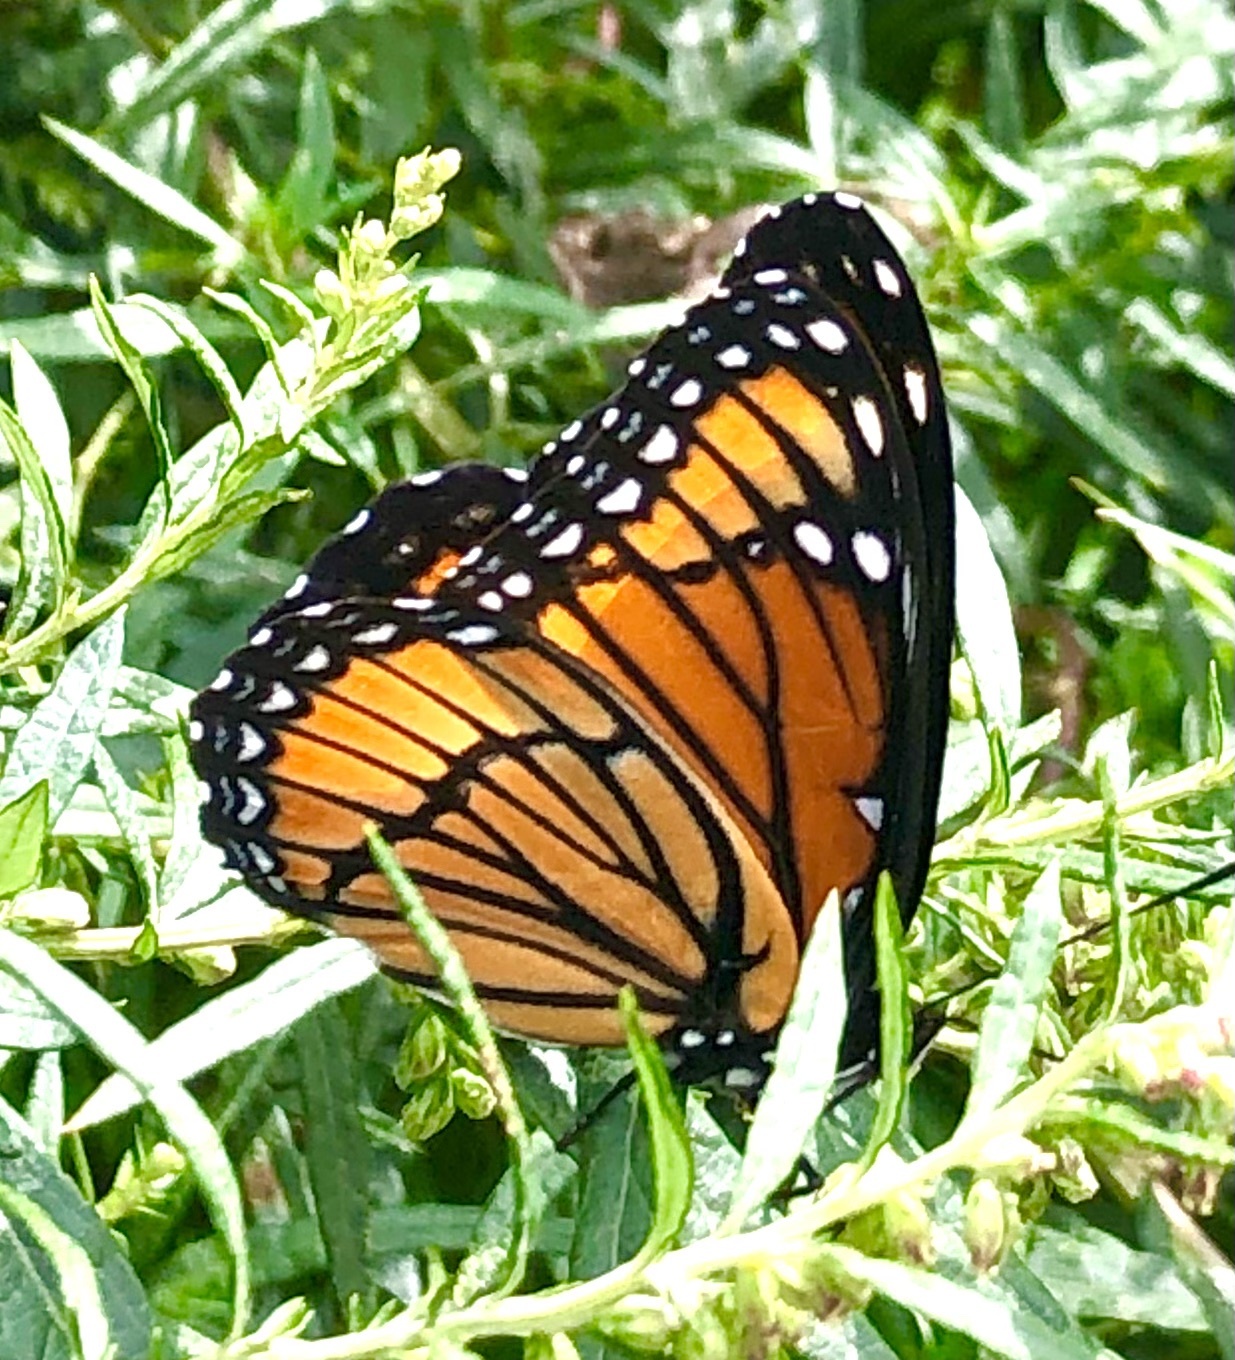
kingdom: Animalia
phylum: Arthropoda
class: Insecta
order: Lepidoptera
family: Nymphalidae
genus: Limenitis
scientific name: Limenitis archippus
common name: Viceroy
